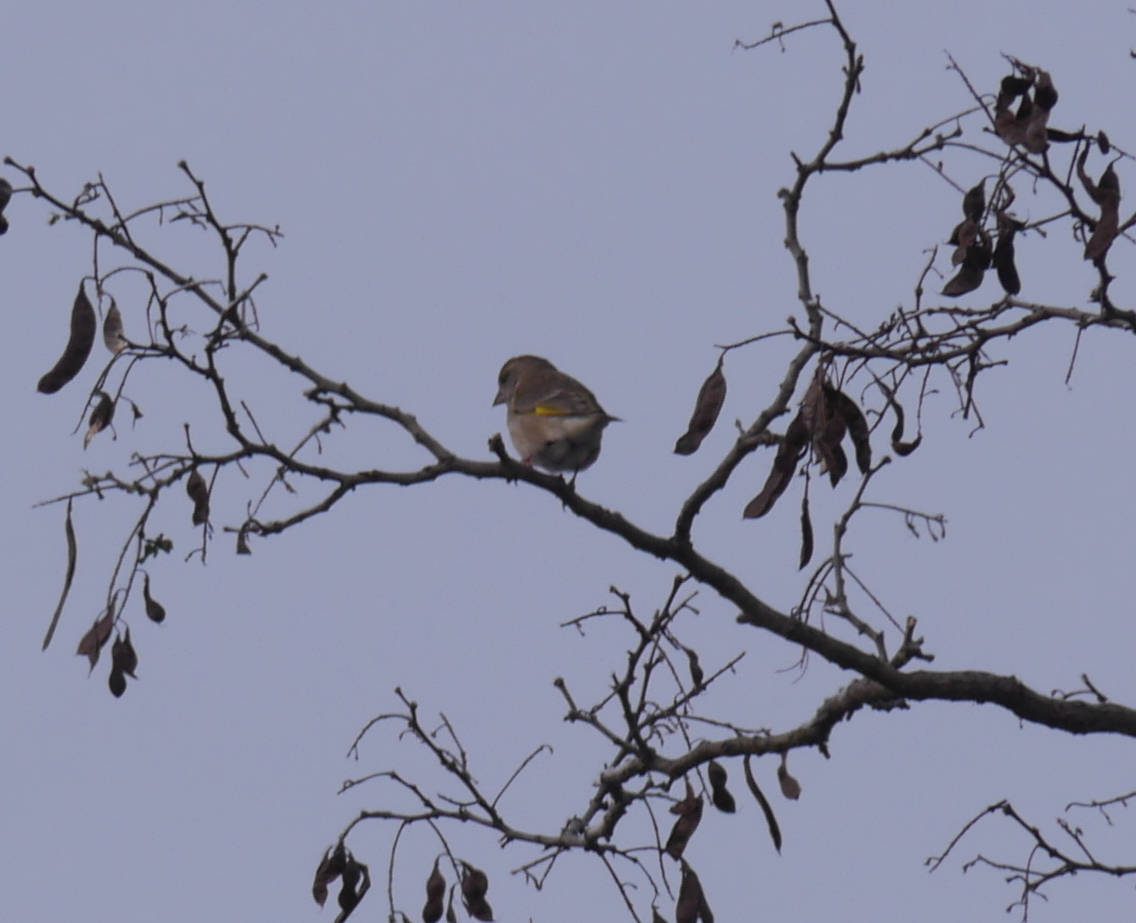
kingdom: Plantae
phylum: Tracheophyta
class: Liliopsida
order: Poales
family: Poaceae
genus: Chloris
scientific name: Chloris chloris
